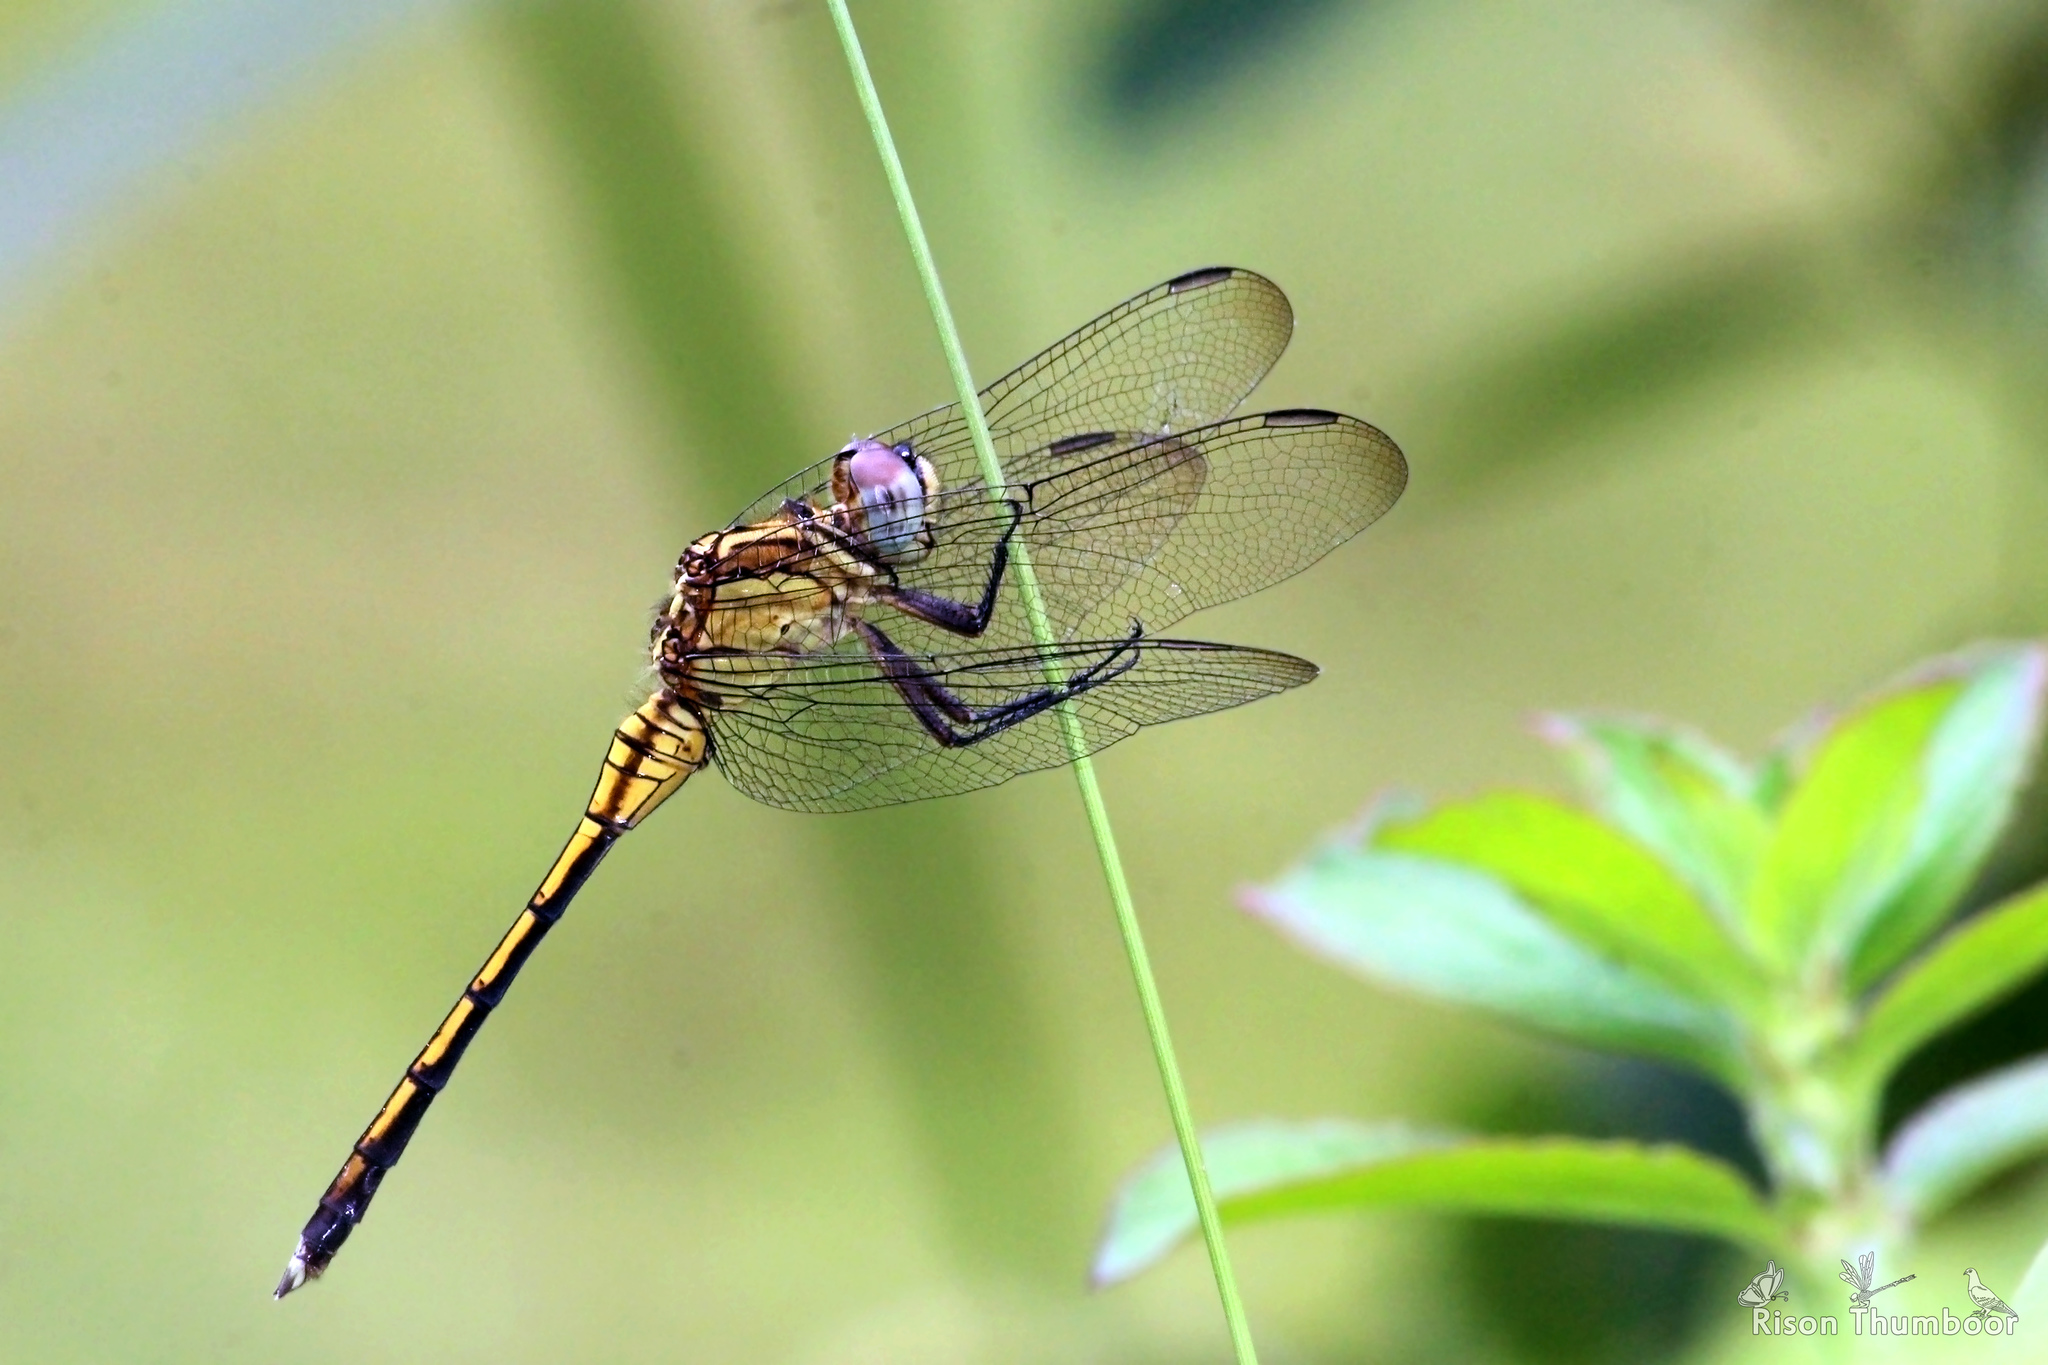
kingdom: Animalia
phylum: Arthropoda
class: Insecta
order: Odonata
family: Libellulidae
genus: Orthetrum
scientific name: Orthetrum luzonicum
